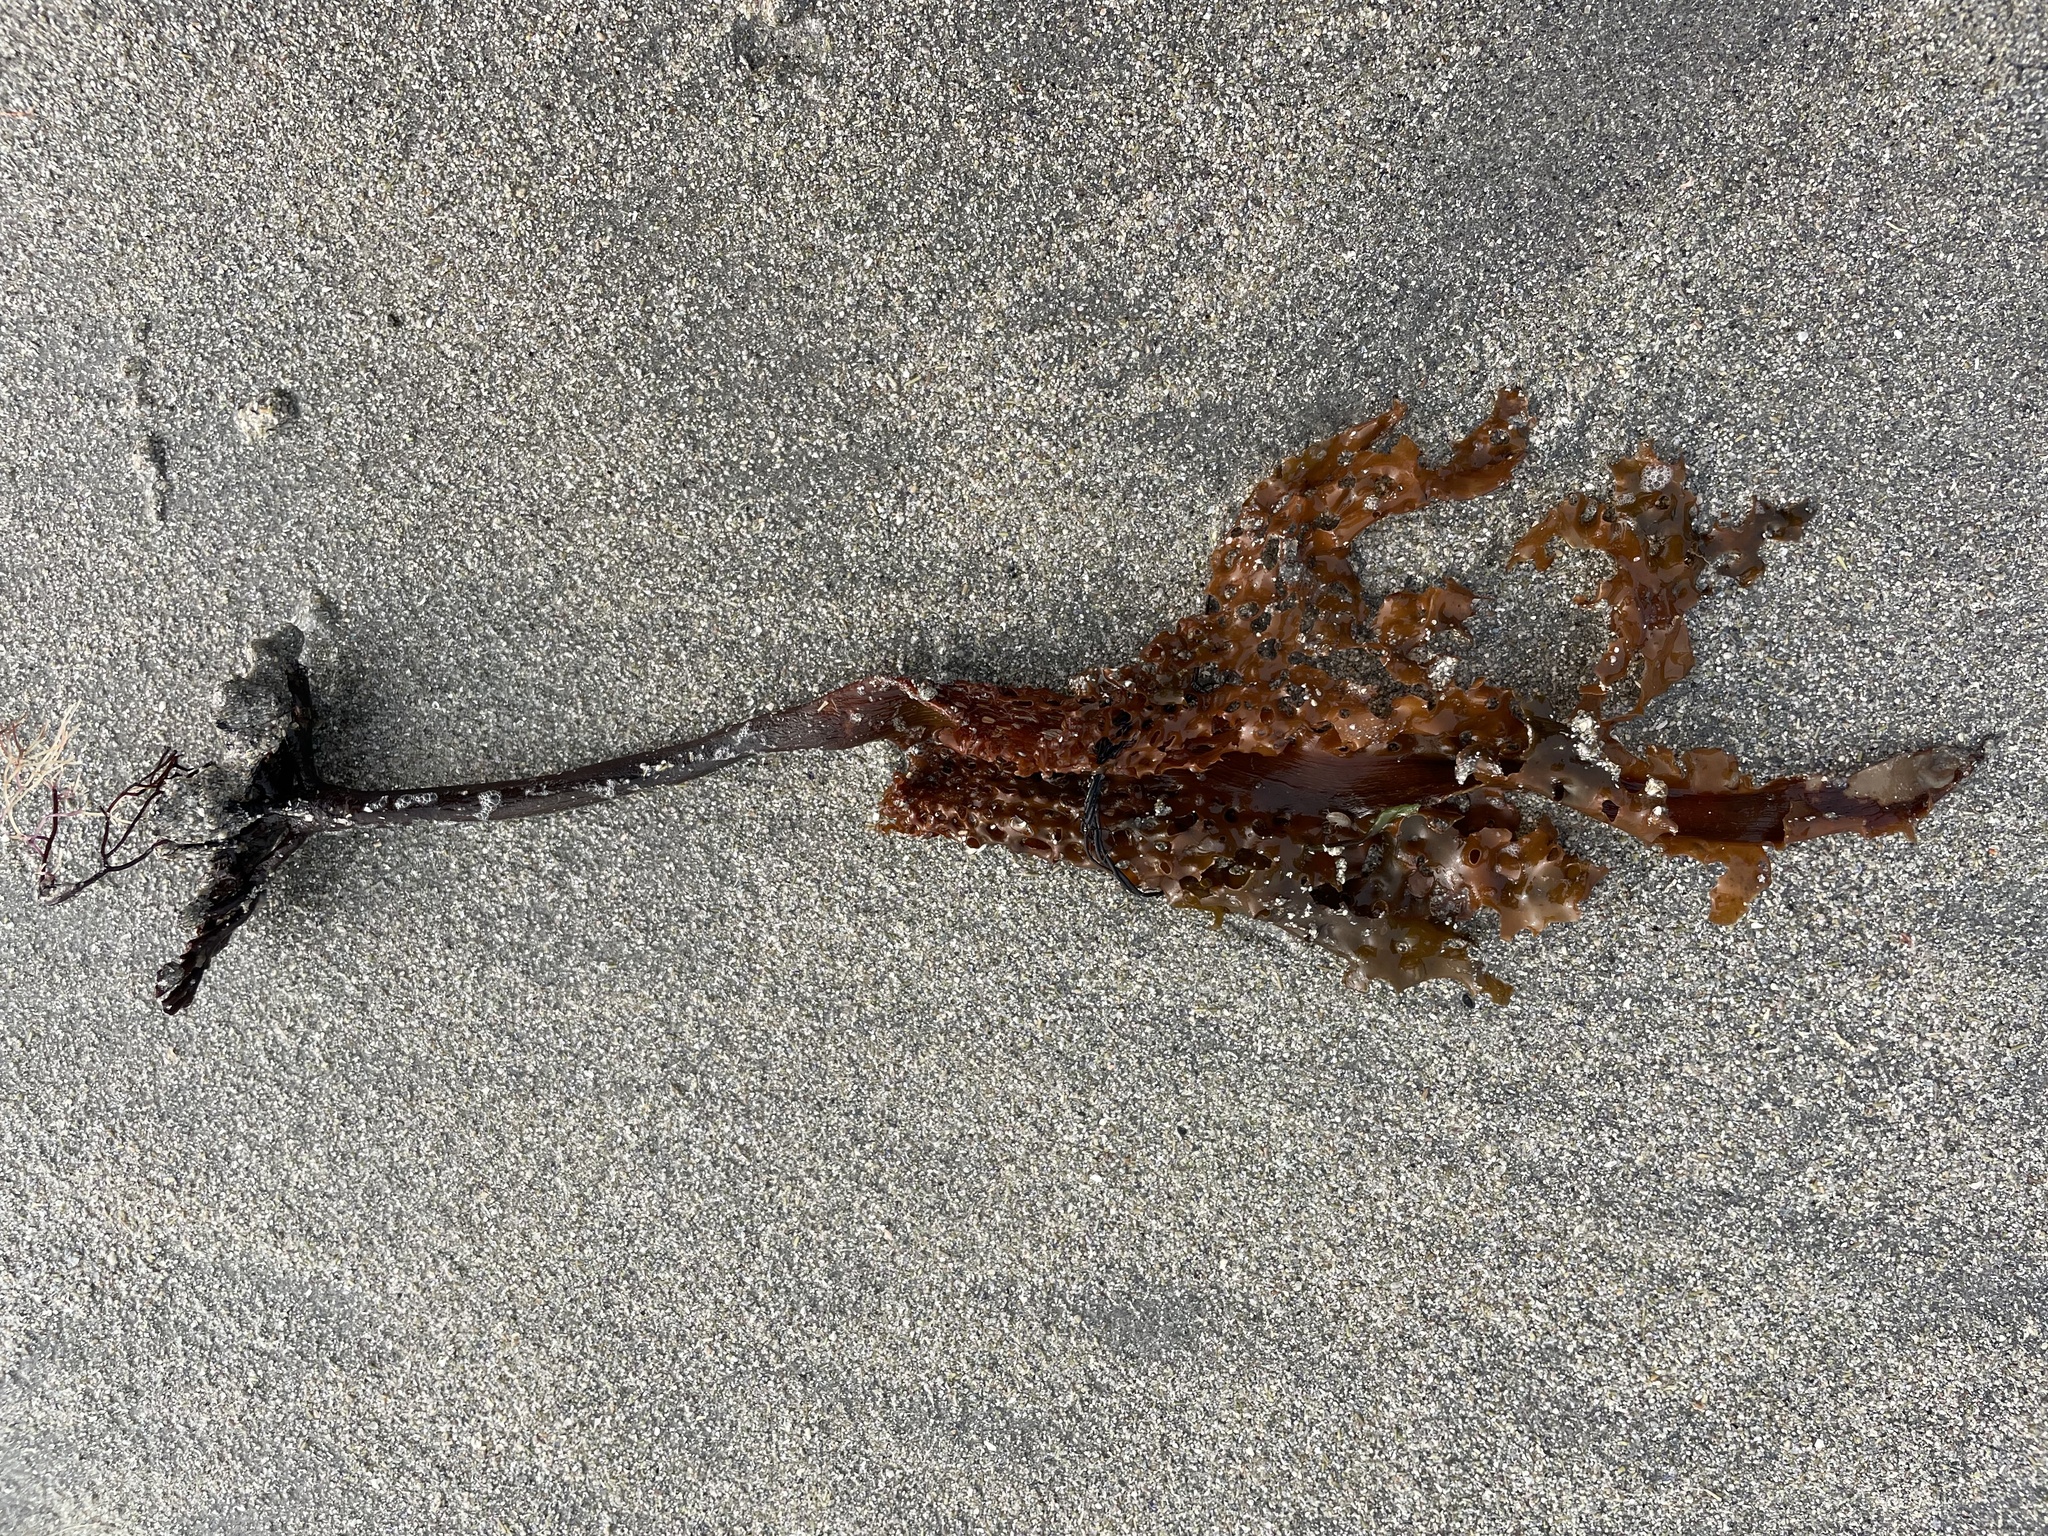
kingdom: Chromista
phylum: Ochrophyta
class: Phaeophyceae
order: Laminariales
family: Costariaceae
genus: Agarum
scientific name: Agarum clathratum
